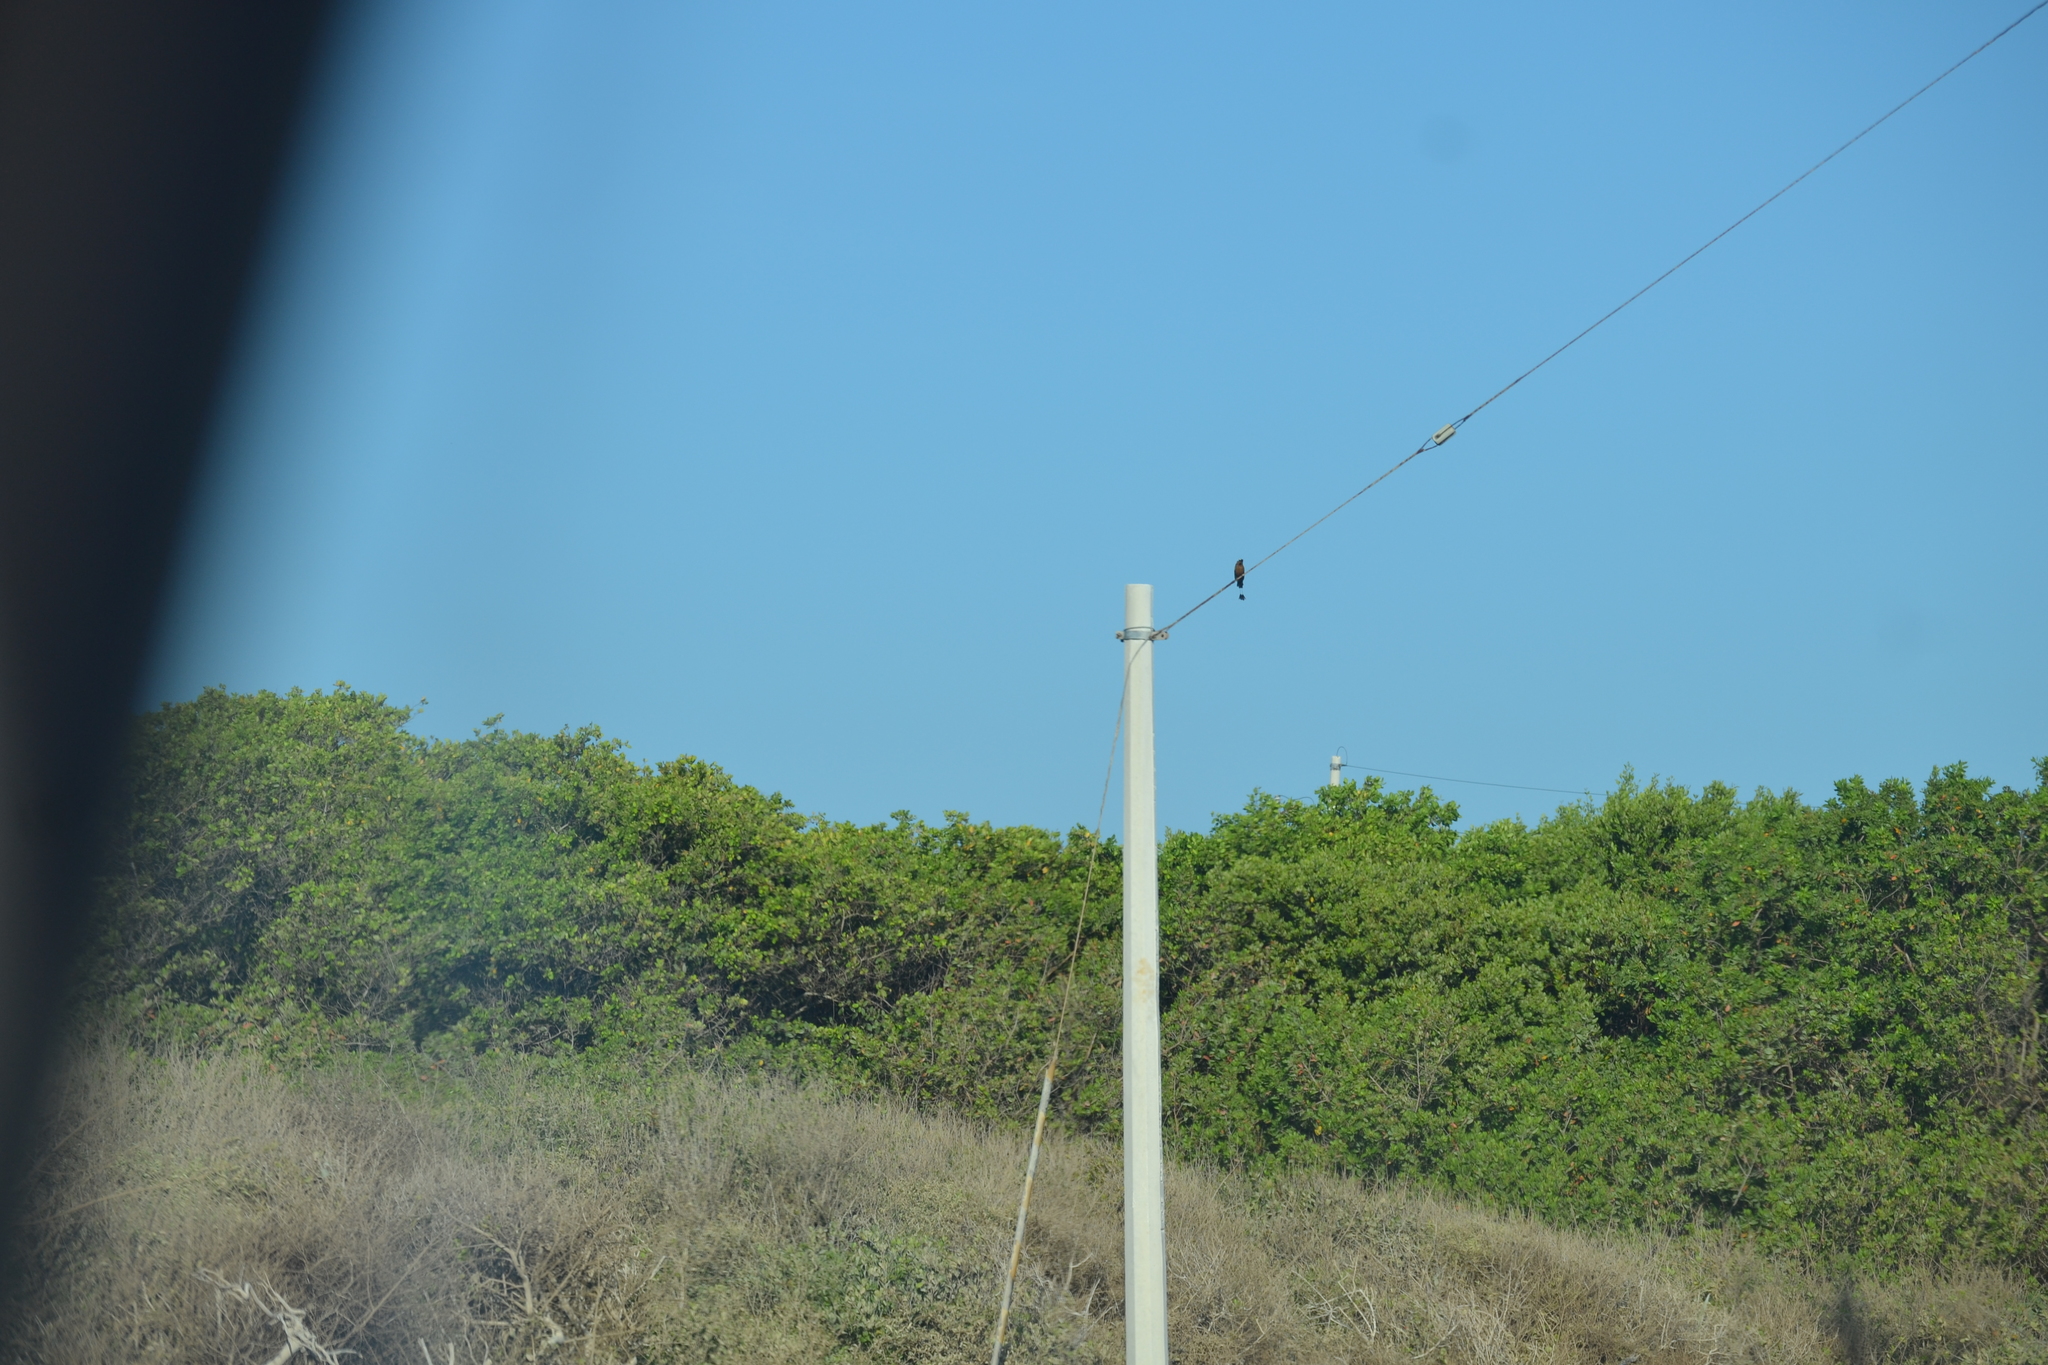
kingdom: Animalia
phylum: Chordata
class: Aves
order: Coraciiformes
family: Momotidae
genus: Eumomota
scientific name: Eumomota superciliosa
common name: Turquoise-browed motmot
